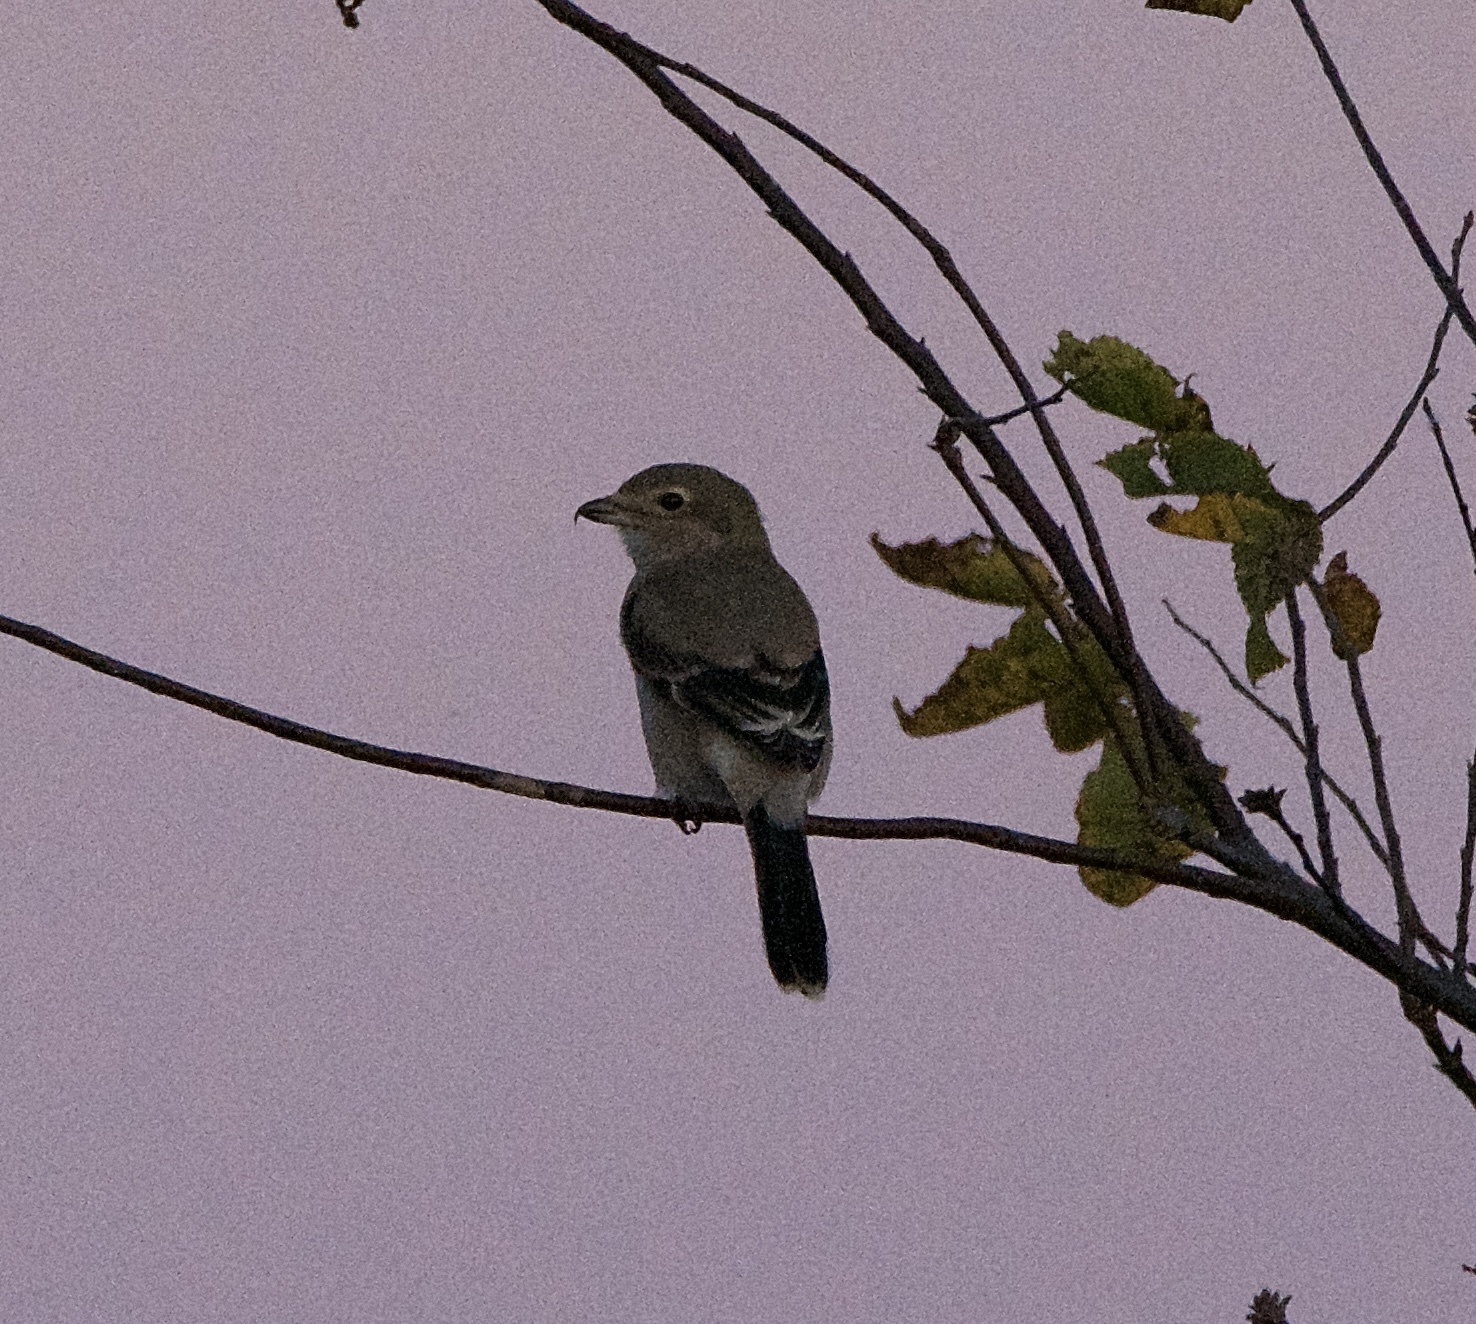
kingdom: Animalia
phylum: Chordata
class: Aves
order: Passeriformes
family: Laniidae
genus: Lanius
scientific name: Lanius borealis
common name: Northern shrike
